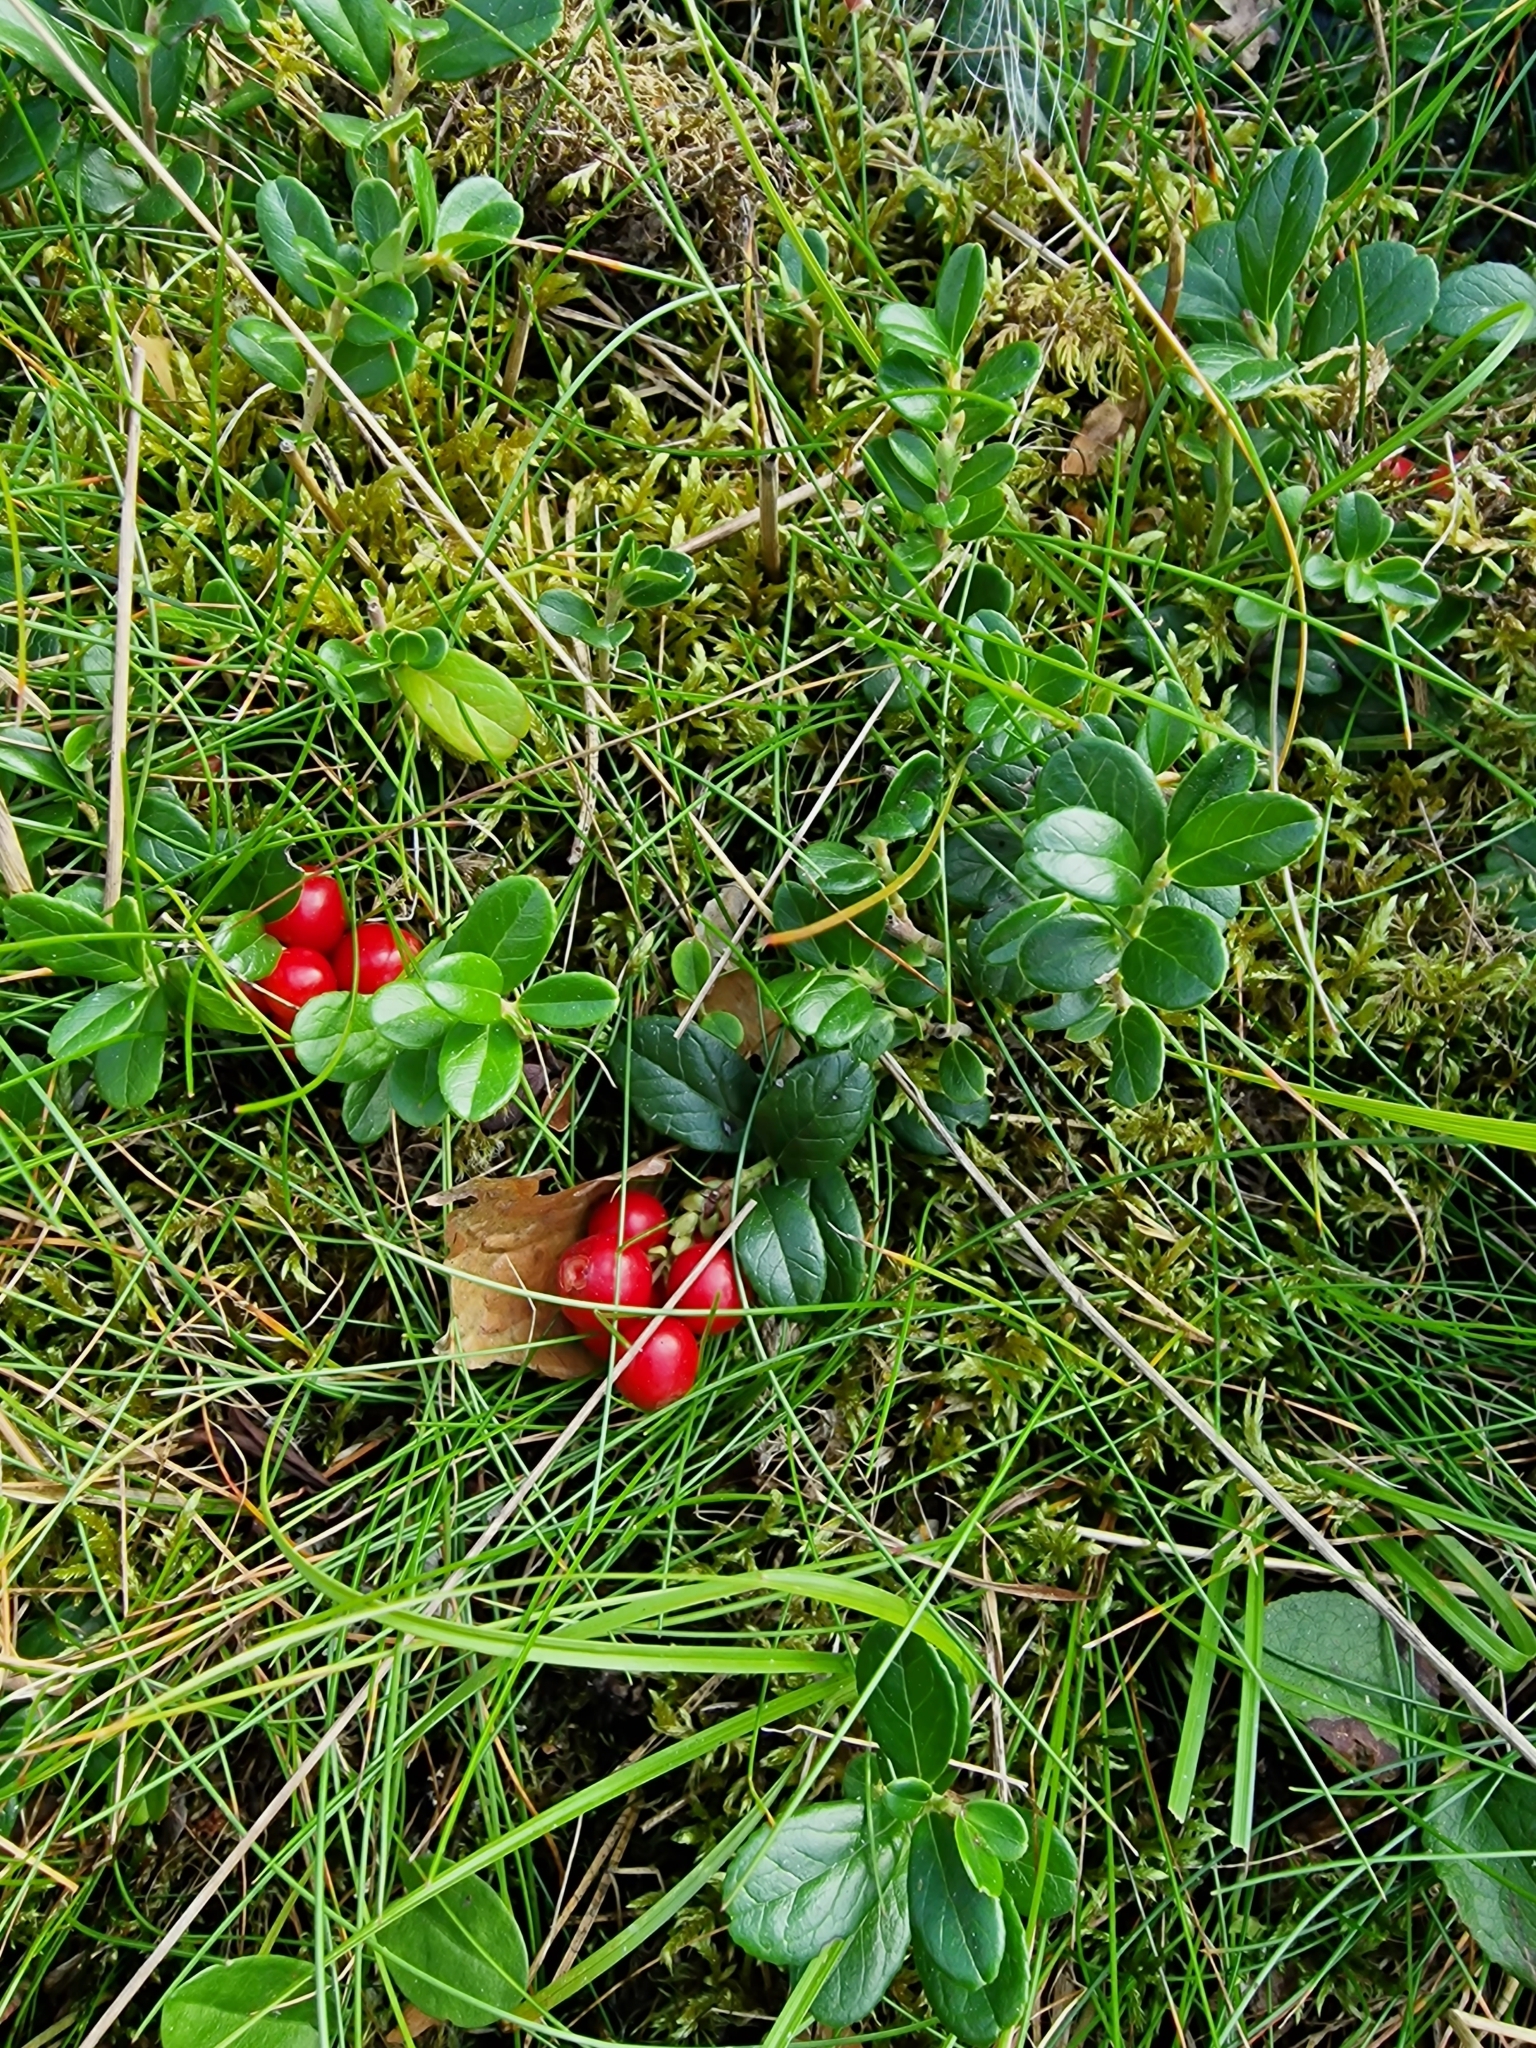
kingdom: Plantae
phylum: Tracheophyta
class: Magnoliopsida
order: Ericales
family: Ericaceae
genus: Vaccinium
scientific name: Vaccinium vitis-idaea
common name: Cowberry
